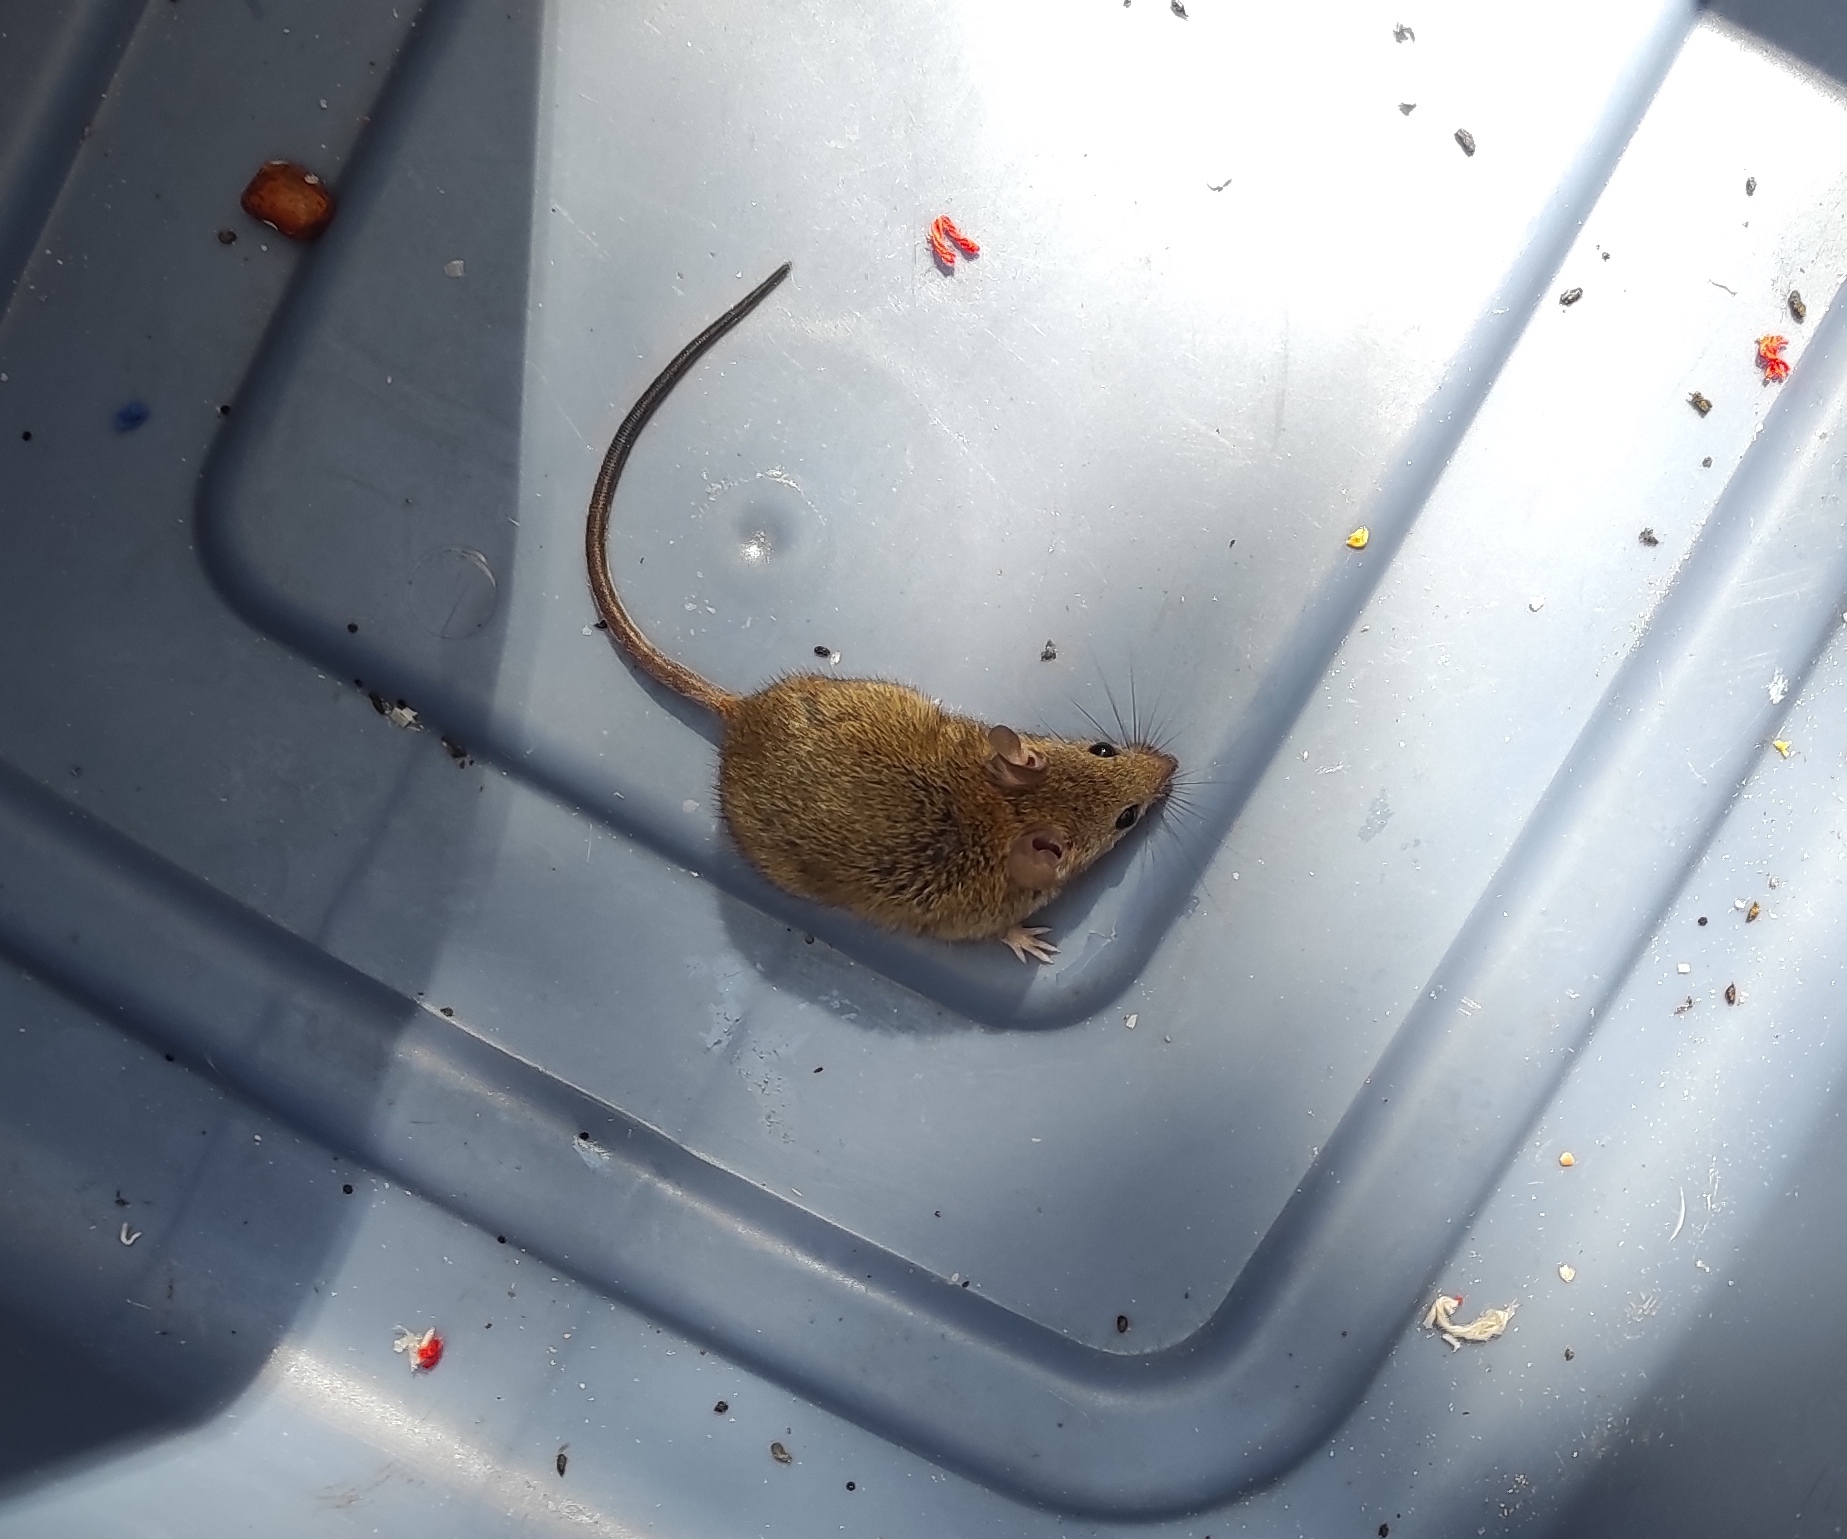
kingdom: Animalia
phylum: Chordata
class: Mammalia
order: Rodentia
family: Muridae
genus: Mus
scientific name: Mus musculus
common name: House mouse
